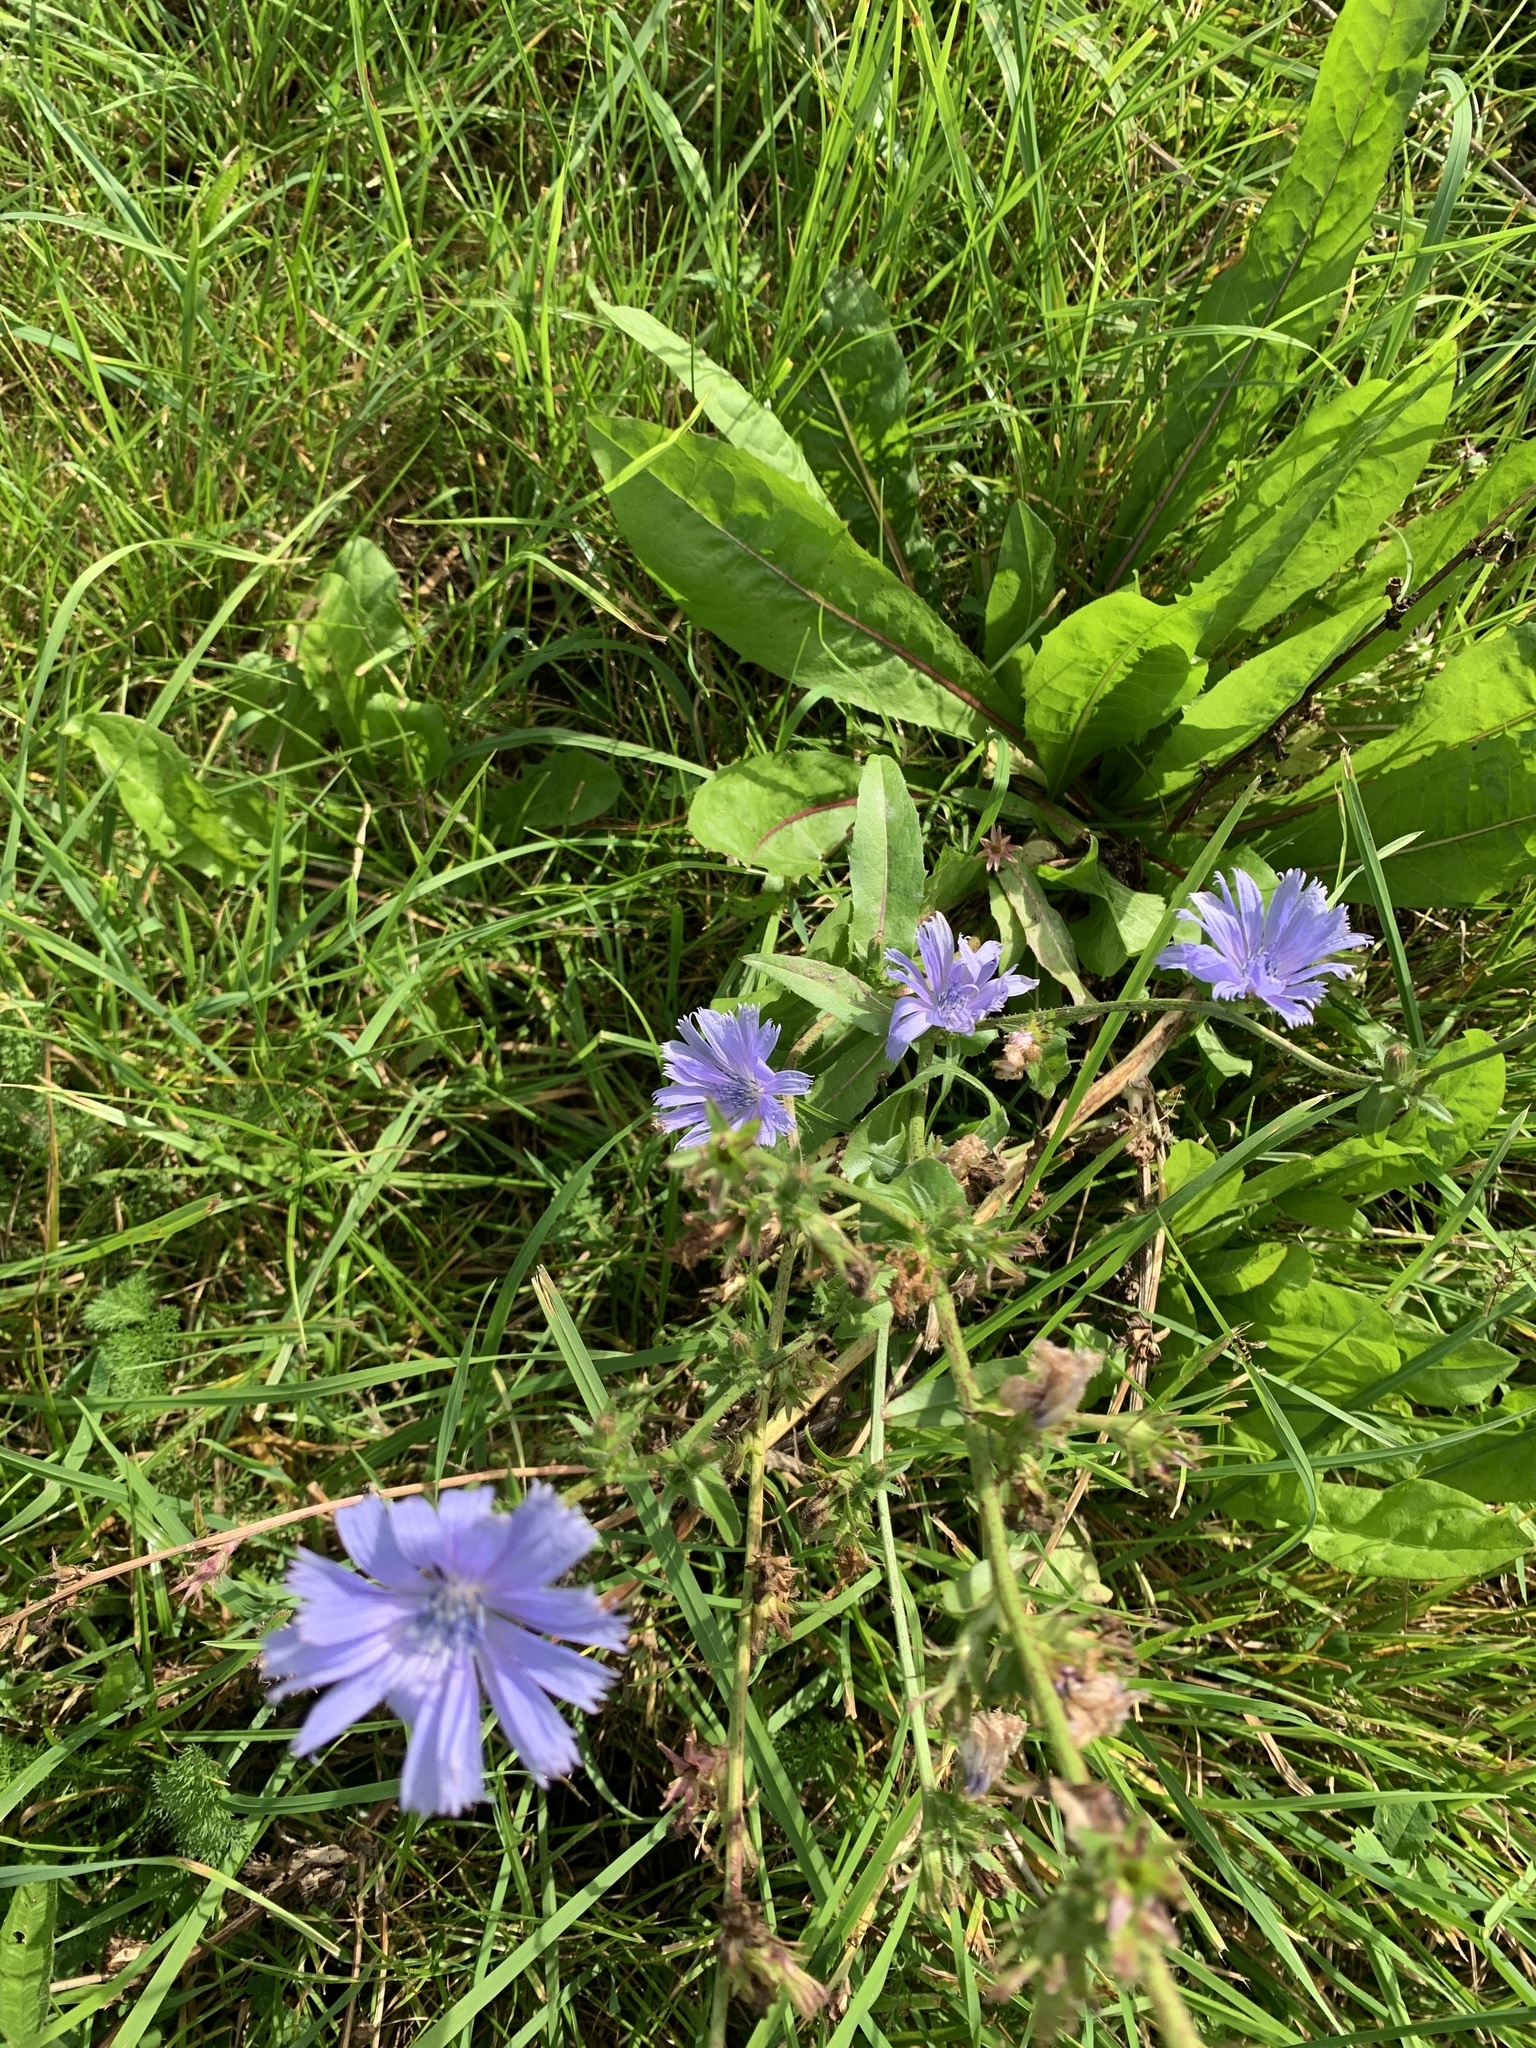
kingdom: Plantae
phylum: Tracheophyta
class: Magnoliopsida
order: Asterales
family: Asteraceae
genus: Cichorium
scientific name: Cichorium intybus
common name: Chicory
